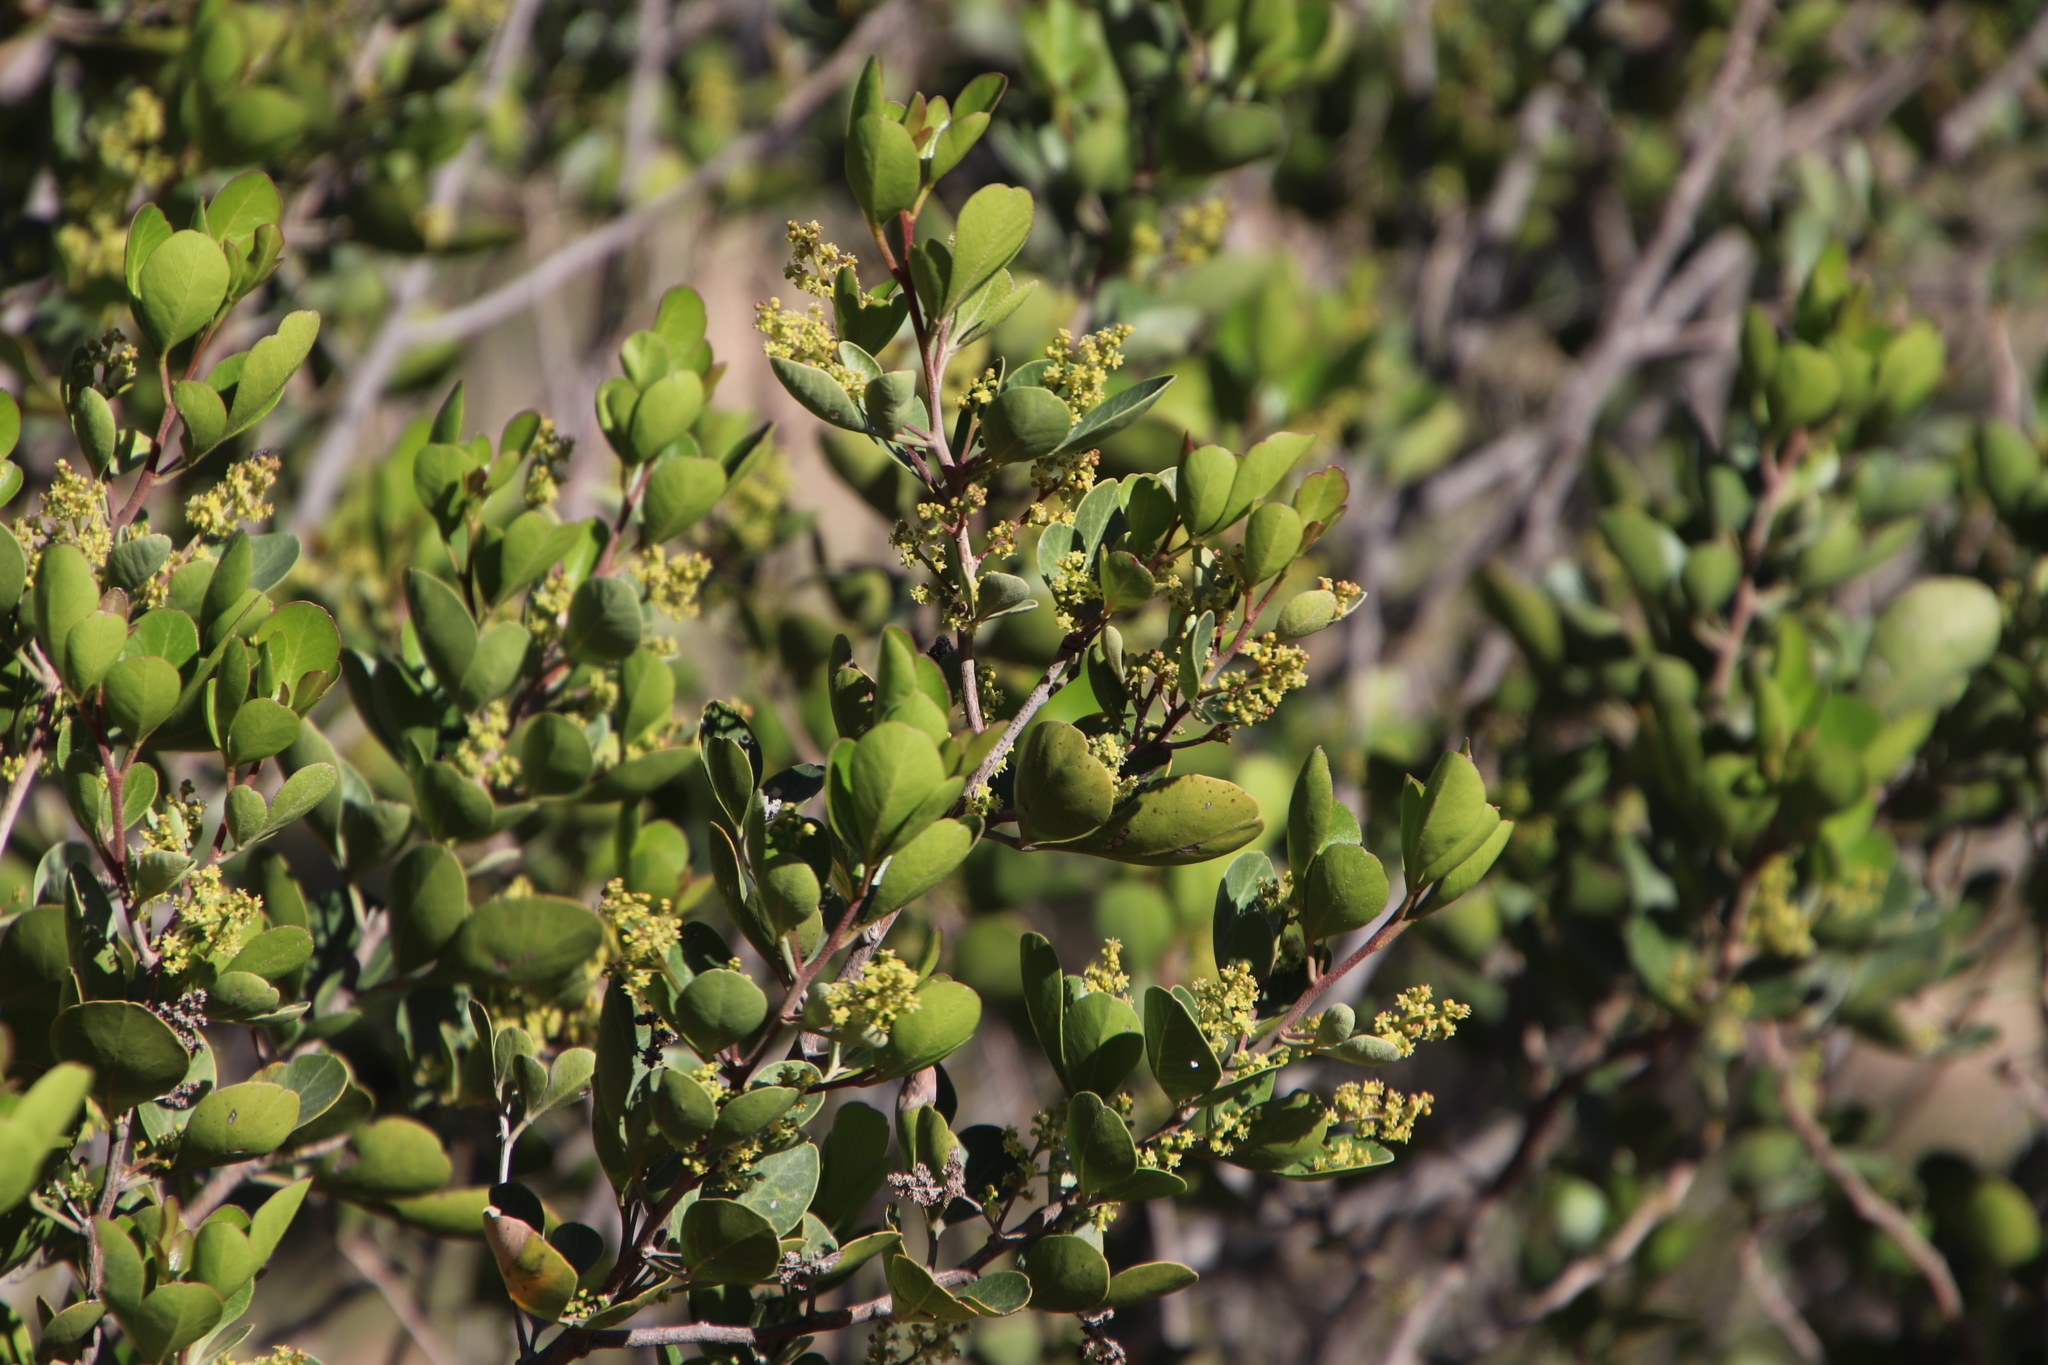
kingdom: Plantae
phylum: Tracheophyta
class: Magnoliopsida
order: Sapindales
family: Anacardiaceae
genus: Searsia
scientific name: Searsia lucida
